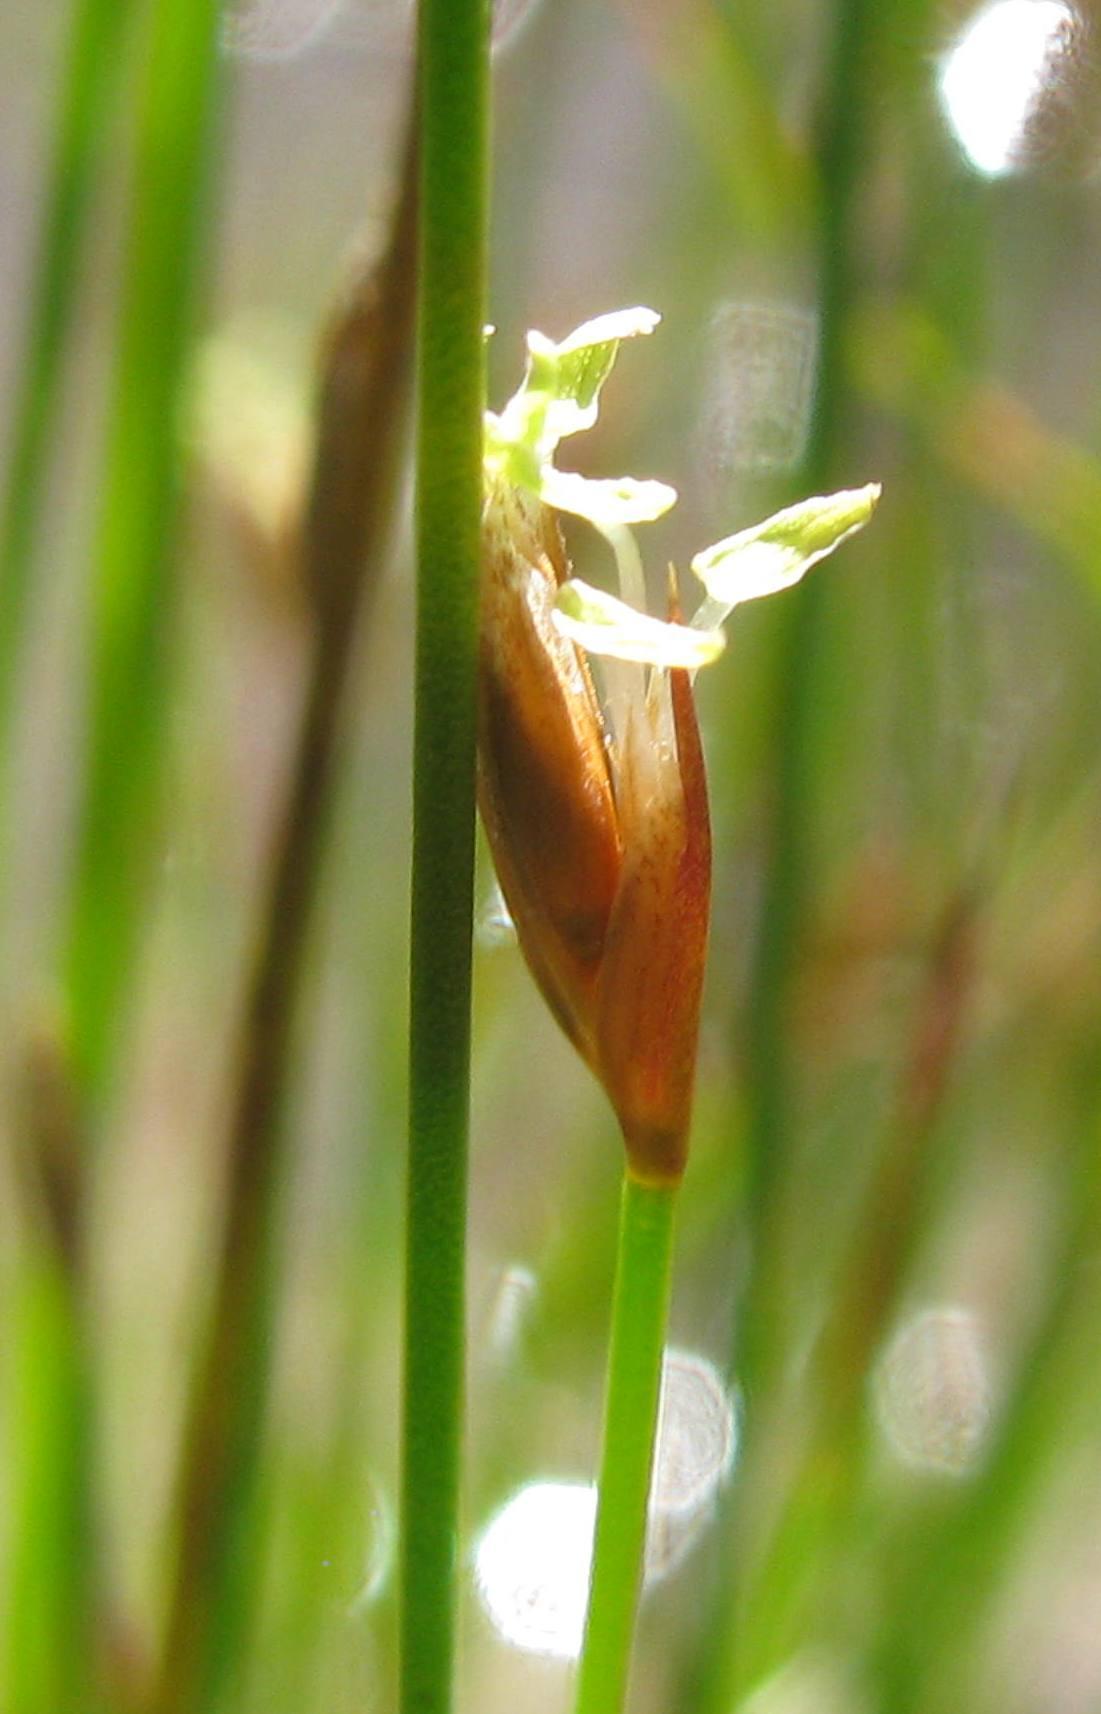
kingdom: Plantae
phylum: Tracheophyta
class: Liliopsida
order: Poales
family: Restionaceae
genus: Restio
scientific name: Restio paludosus
